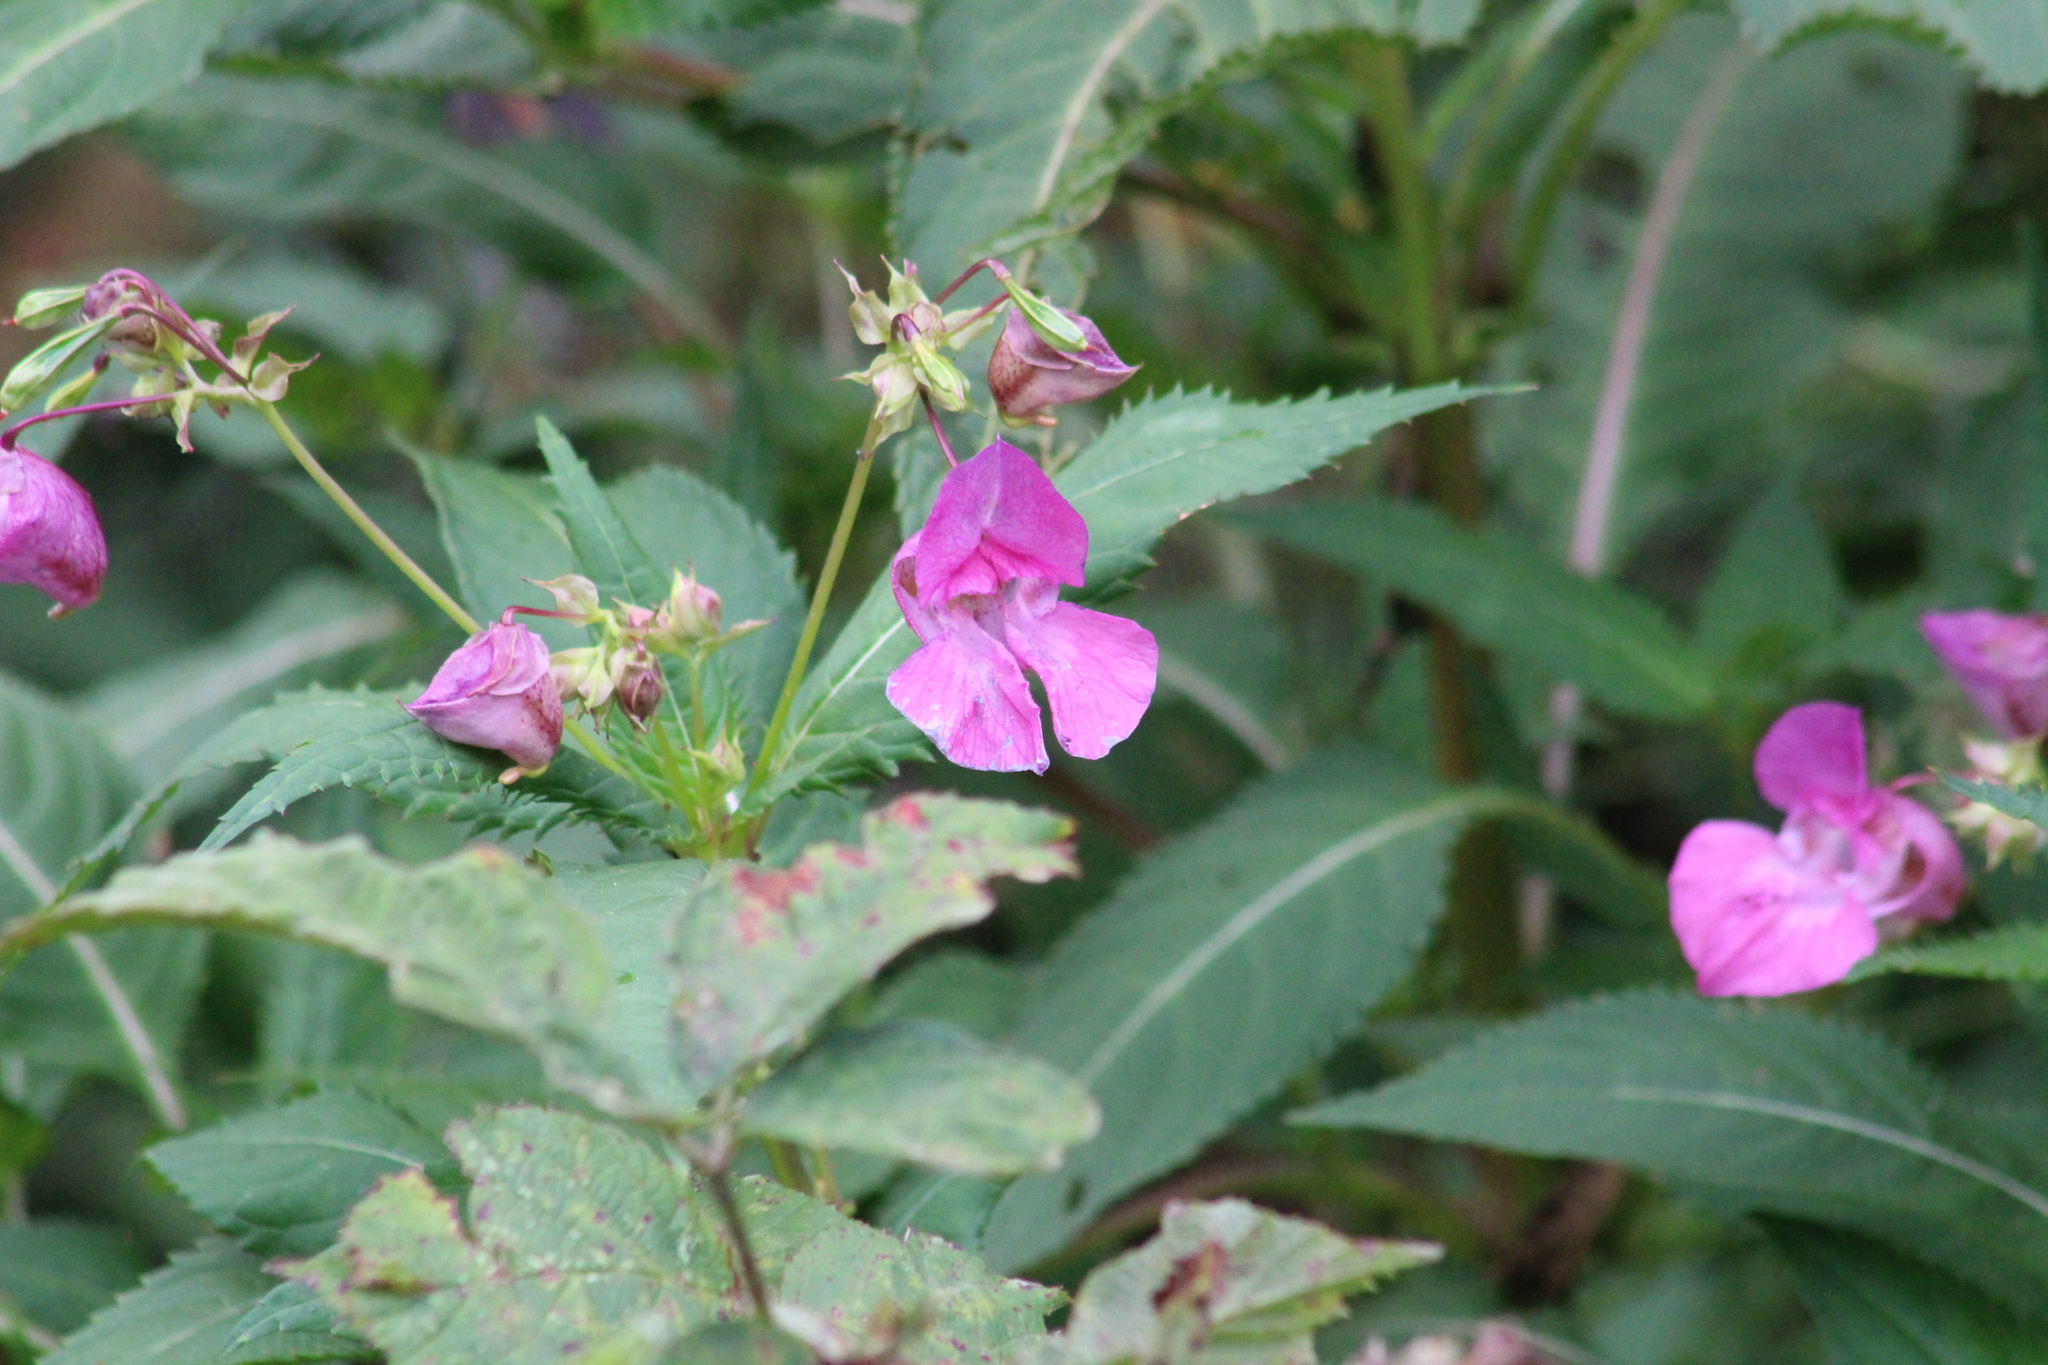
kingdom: Plantae
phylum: Tracheophyta
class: Magnoliopsida
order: Ericales
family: Balsaminaceae
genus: Impatiens
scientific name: Impatiens glandulifera
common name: Himalayan balsam
